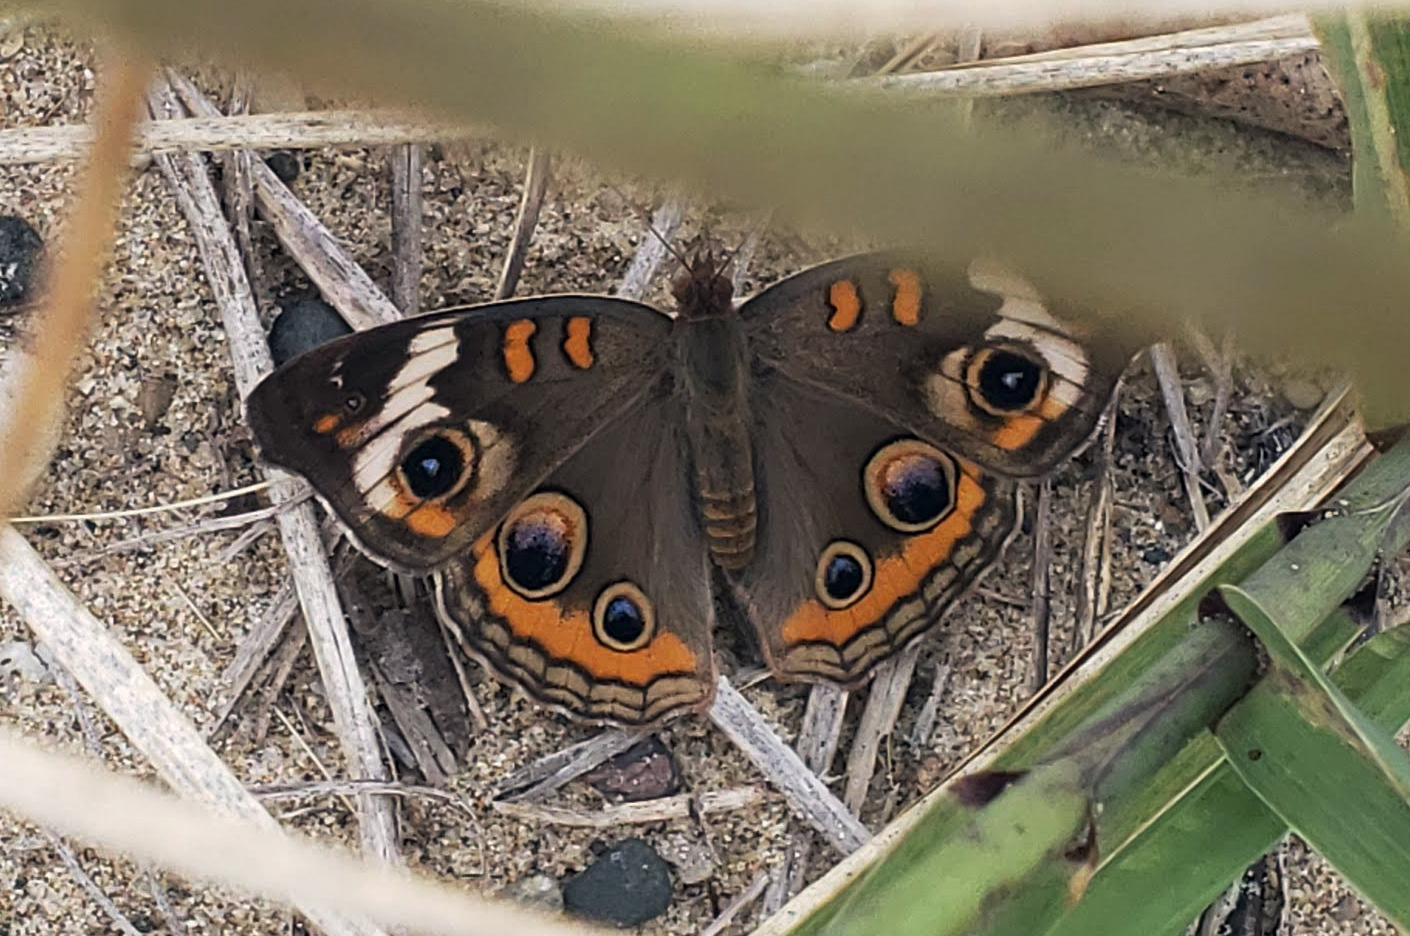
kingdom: Animalia
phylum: Arthropoda
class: Insecta
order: Lepidoptera
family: Nymphalidae
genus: Junonia
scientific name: Junonia coenia
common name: Common buckeye
